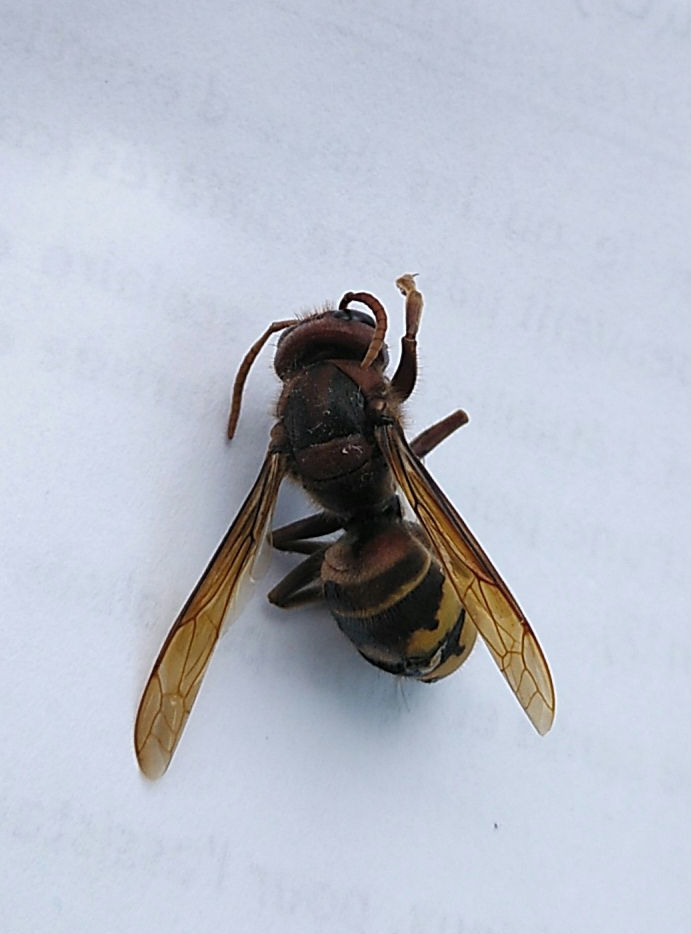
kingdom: Animalia
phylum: Arthropoda
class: Insecta
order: Hymenoptera
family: Vespidae
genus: Vespa
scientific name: Vespa crabro
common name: Hornet
